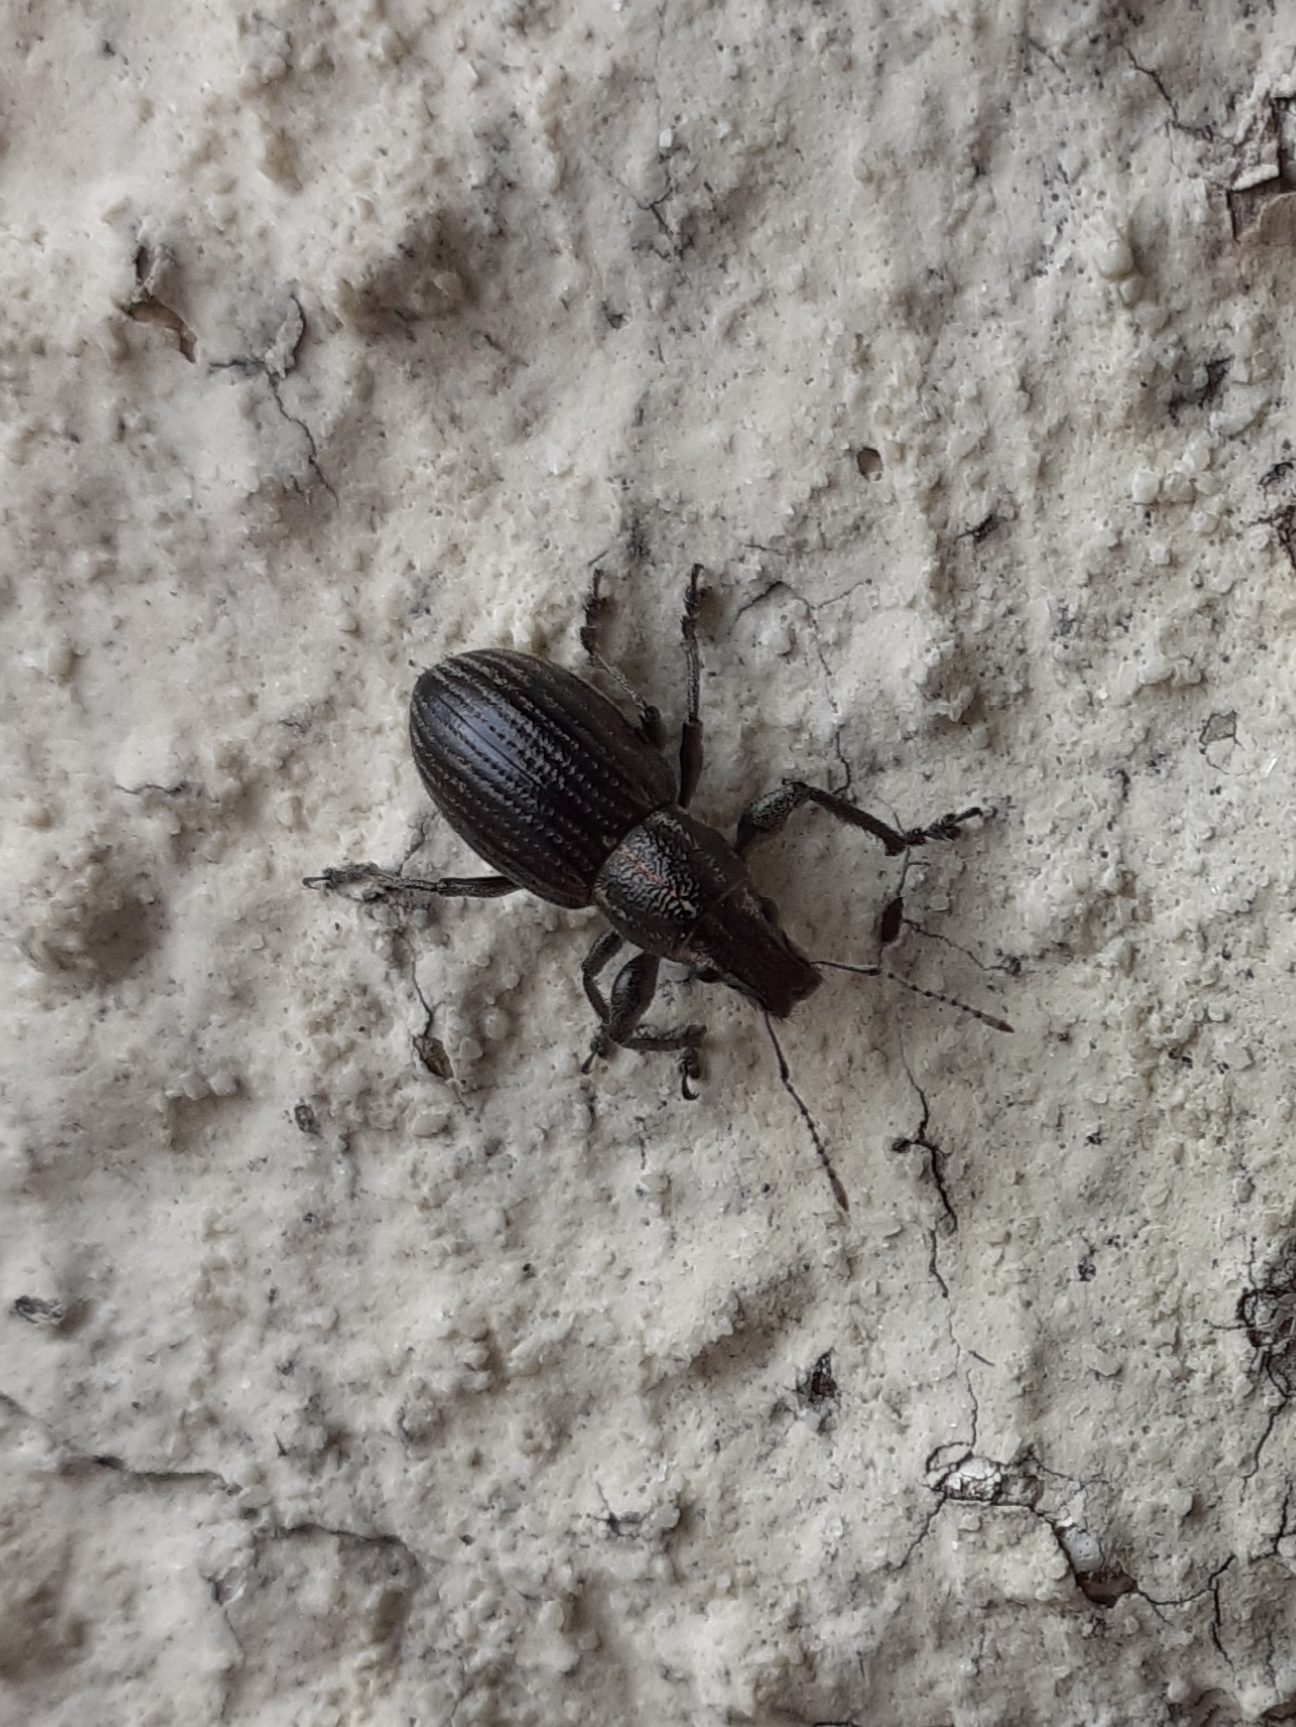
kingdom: Animalia
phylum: Arthropoda
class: Insecta
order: Coleoptera
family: Curculionidae
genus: Naupactus
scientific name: Naupactus tremolerasi
